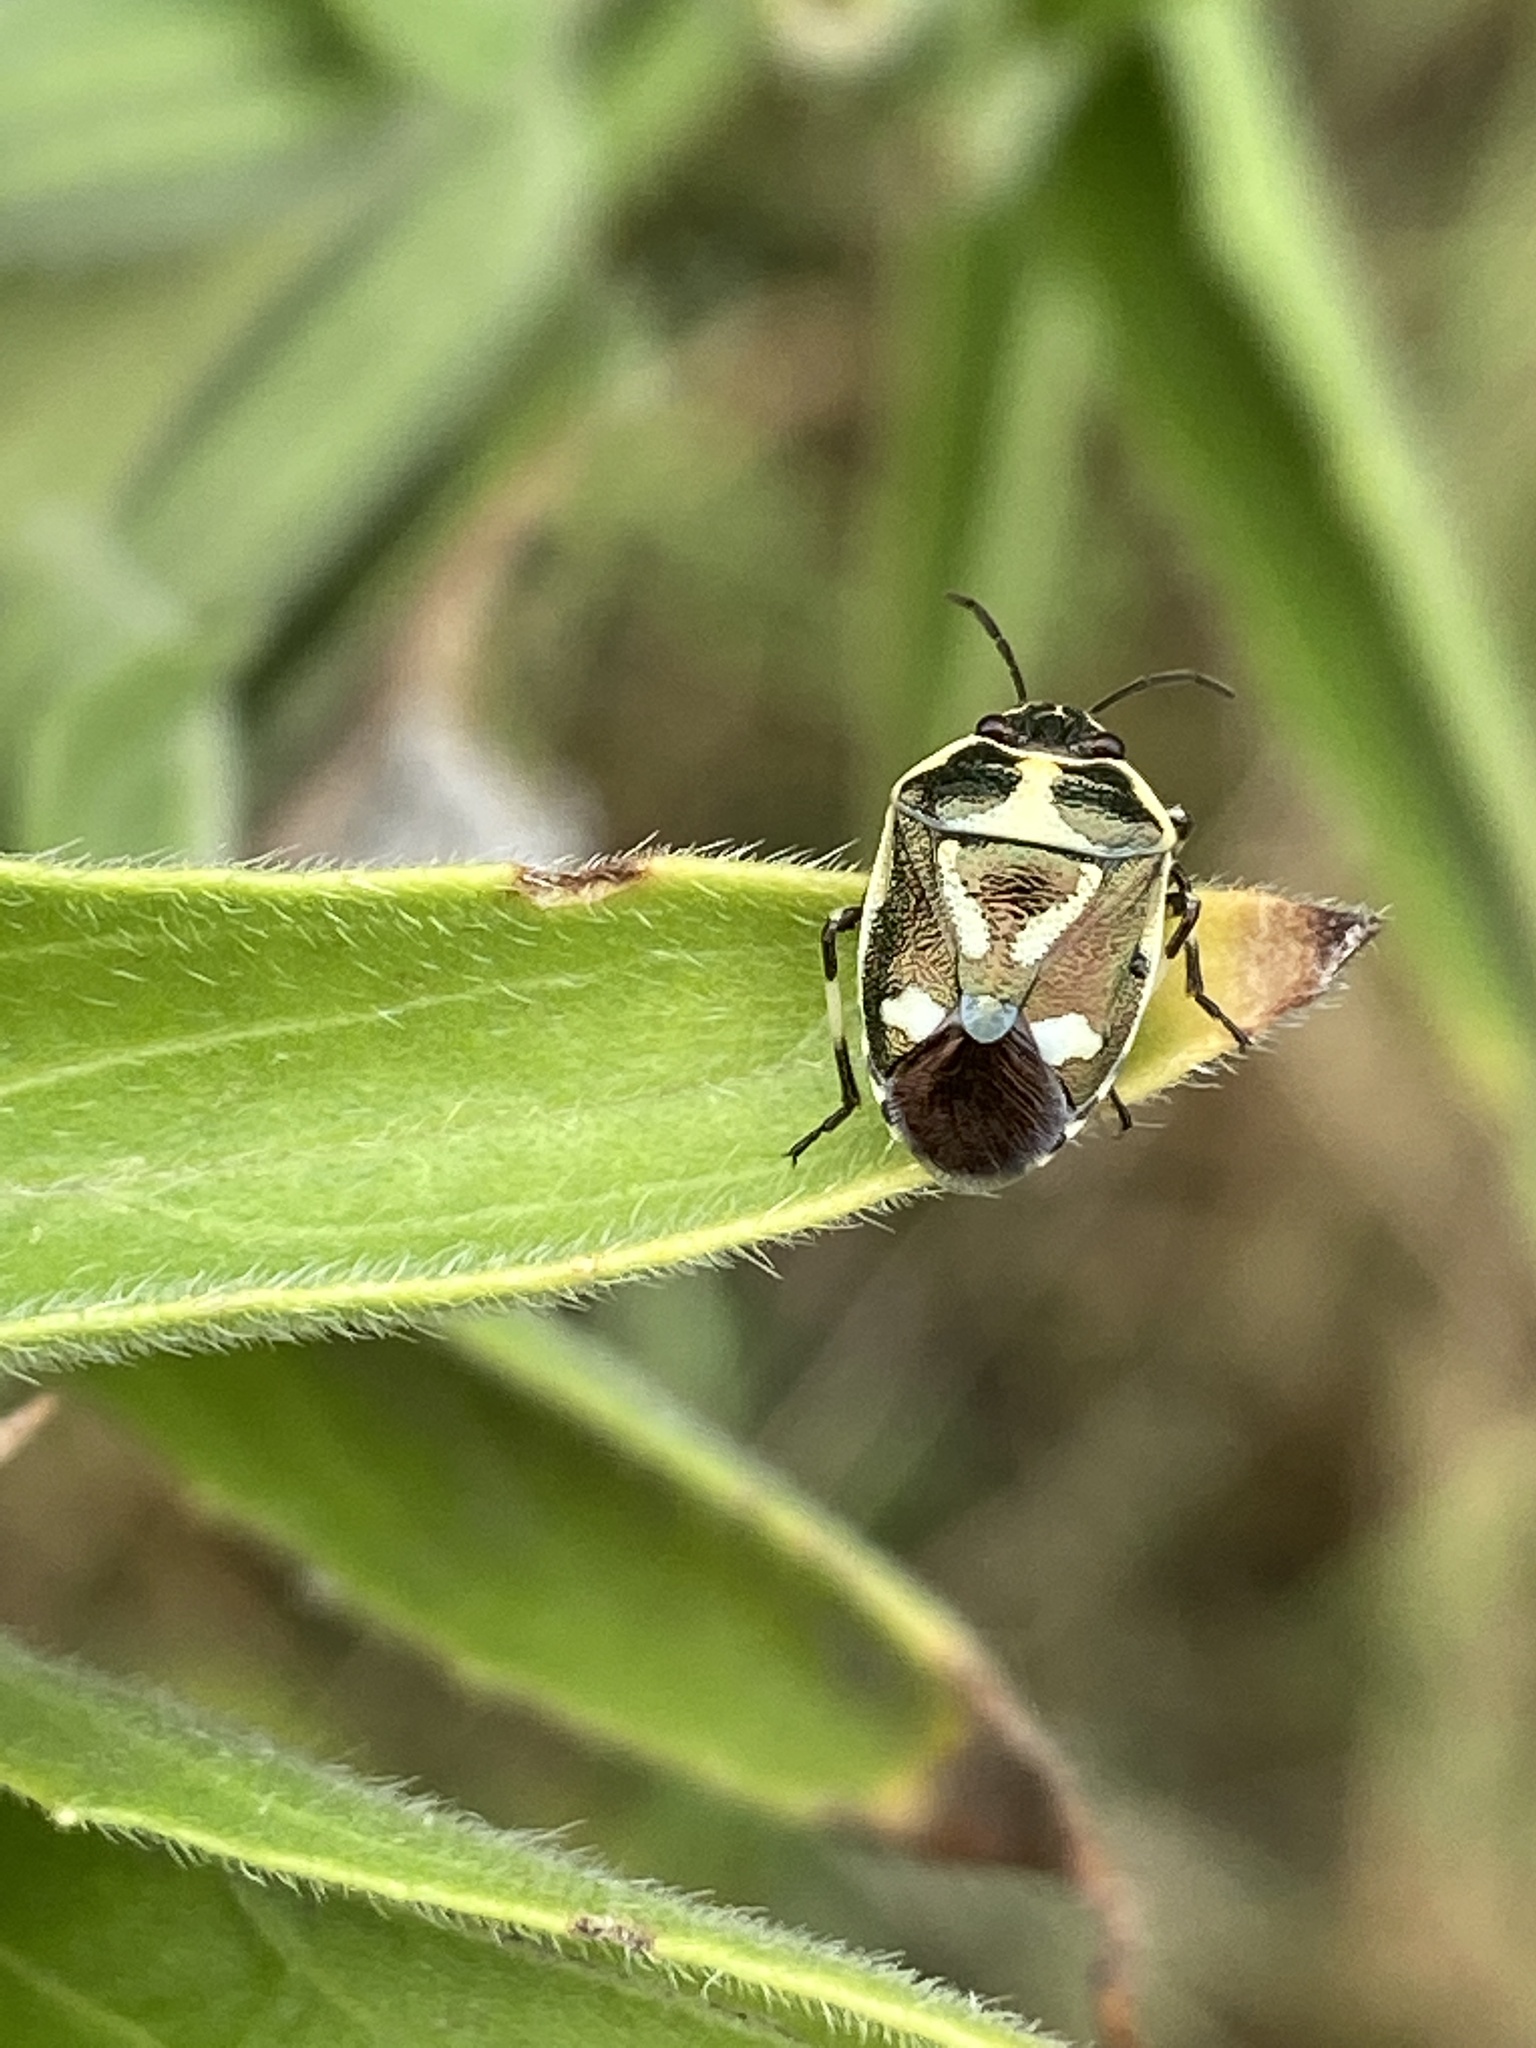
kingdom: Animalia
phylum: Arthropoda
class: Insecta
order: Hemiptera
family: Pentatomidae
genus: Eurydema
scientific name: Eurydema oleracea
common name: Cabbage bug
